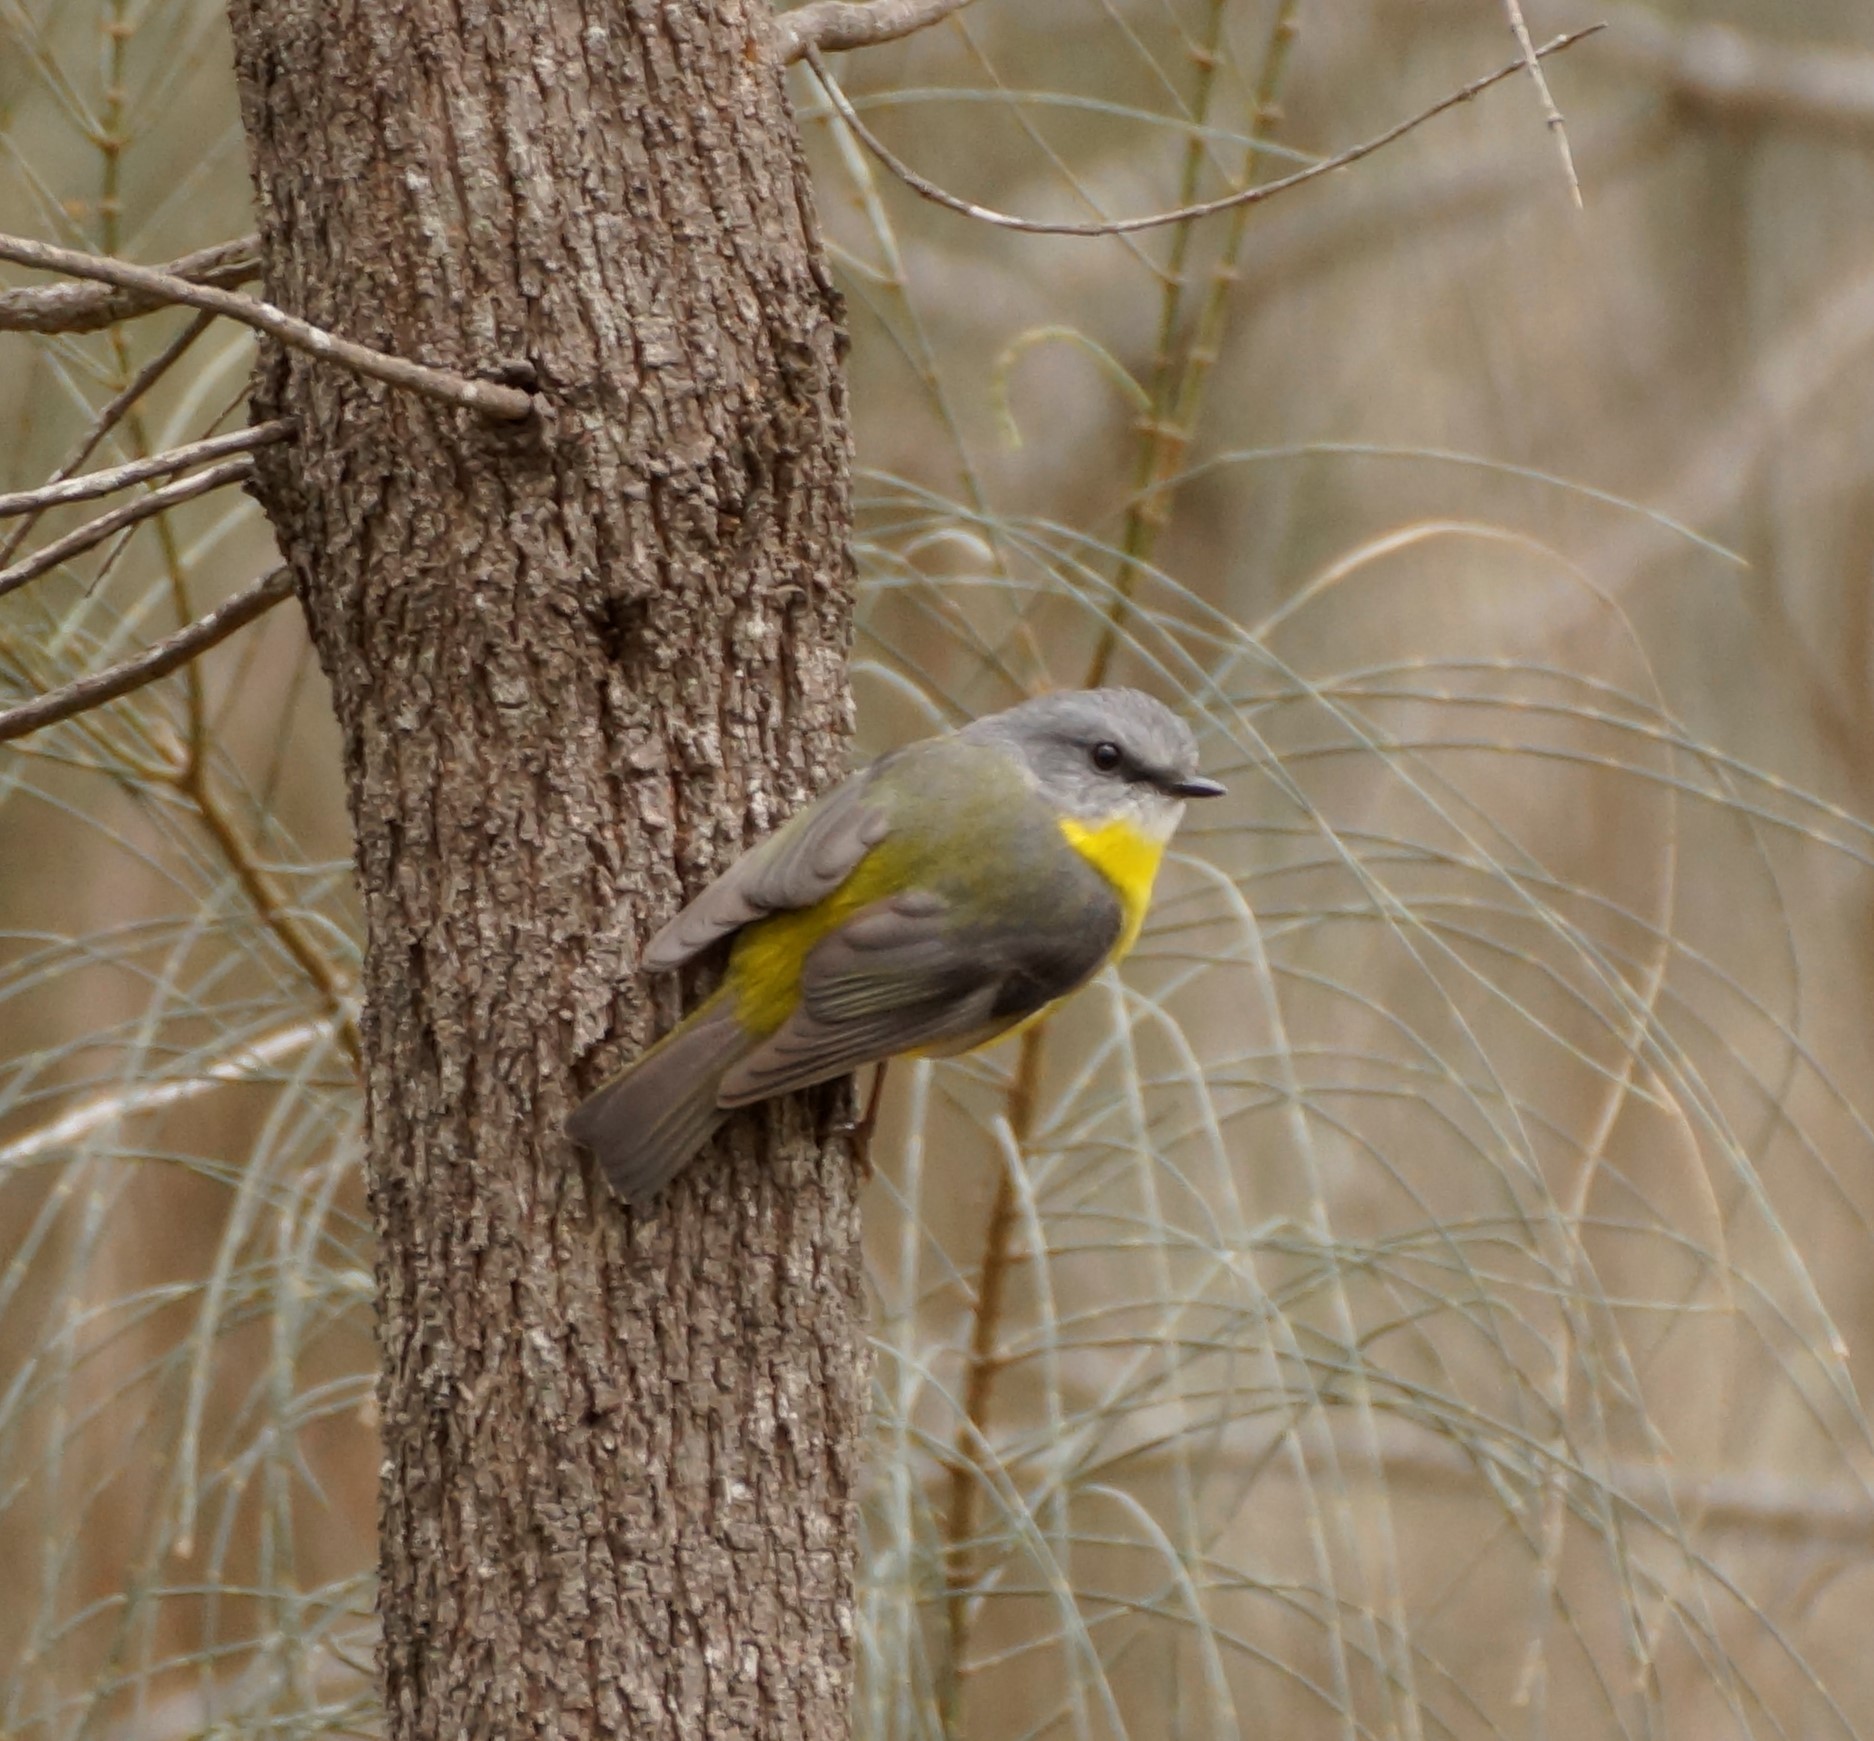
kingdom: Animalia
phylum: Chordata
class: Aves
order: Passeriformes
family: Petroicidae
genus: Eopsaltria
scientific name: Eopsaltria australis
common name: Eastern yellow robin
